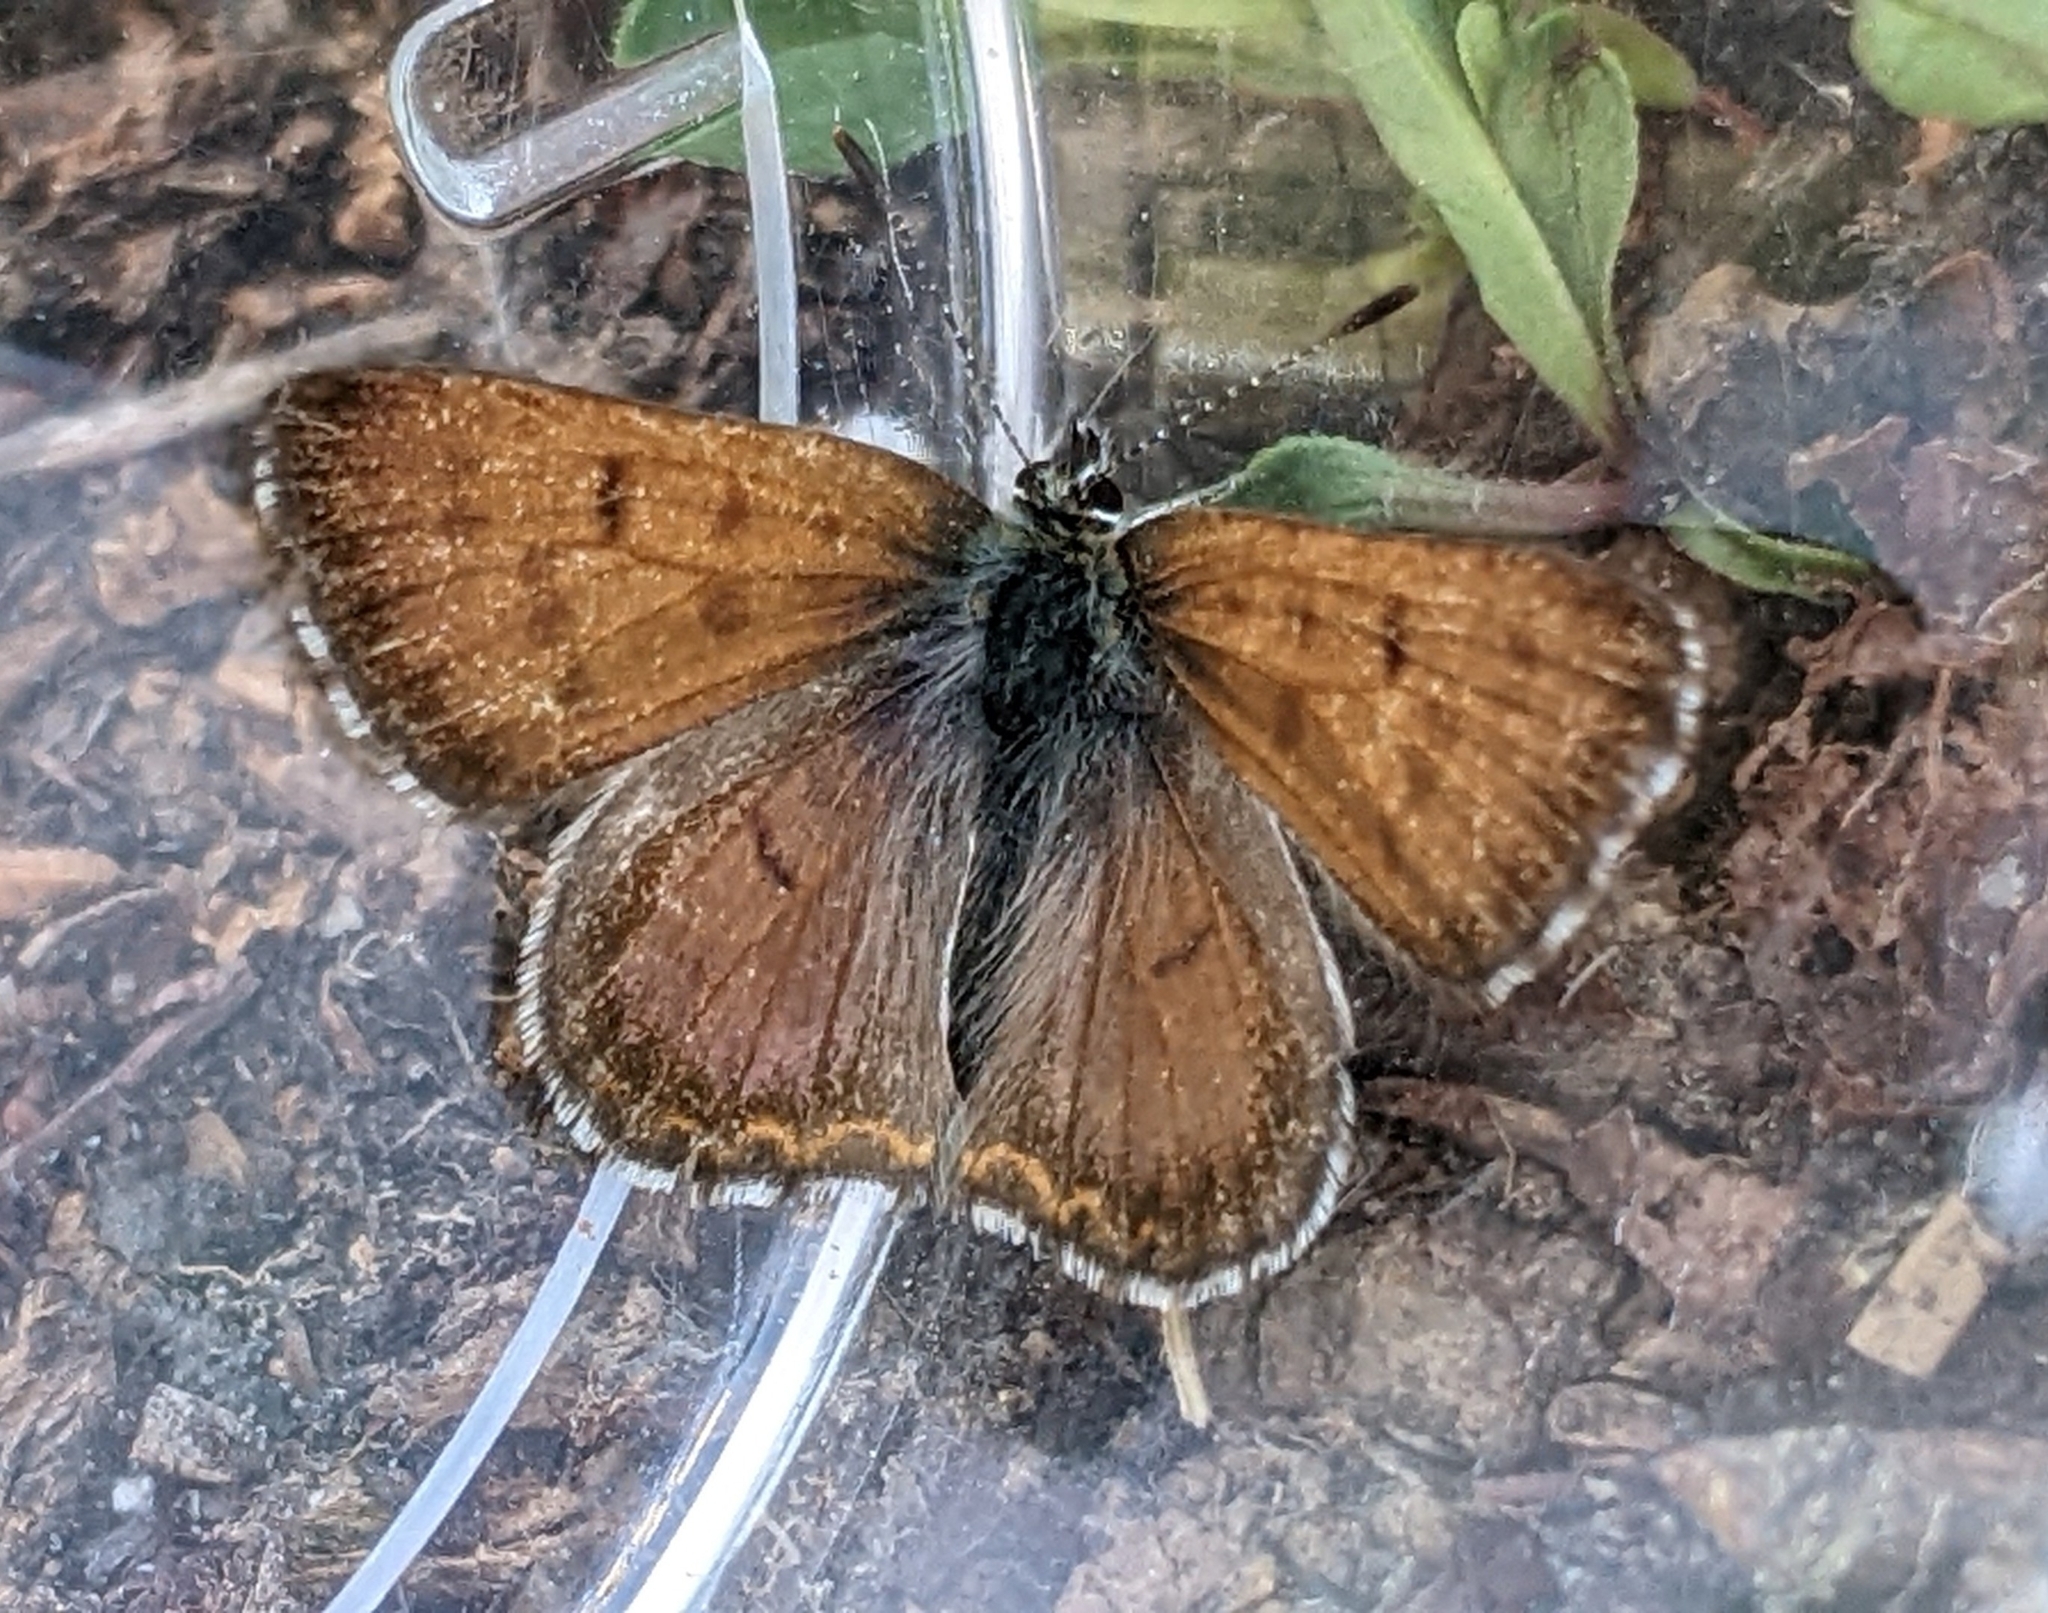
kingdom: Animalia
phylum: Arthropoda
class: Insecta
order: Lepidoptera
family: Lycaenidae
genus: Tharsalea
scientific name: Tharsalea mariposa
